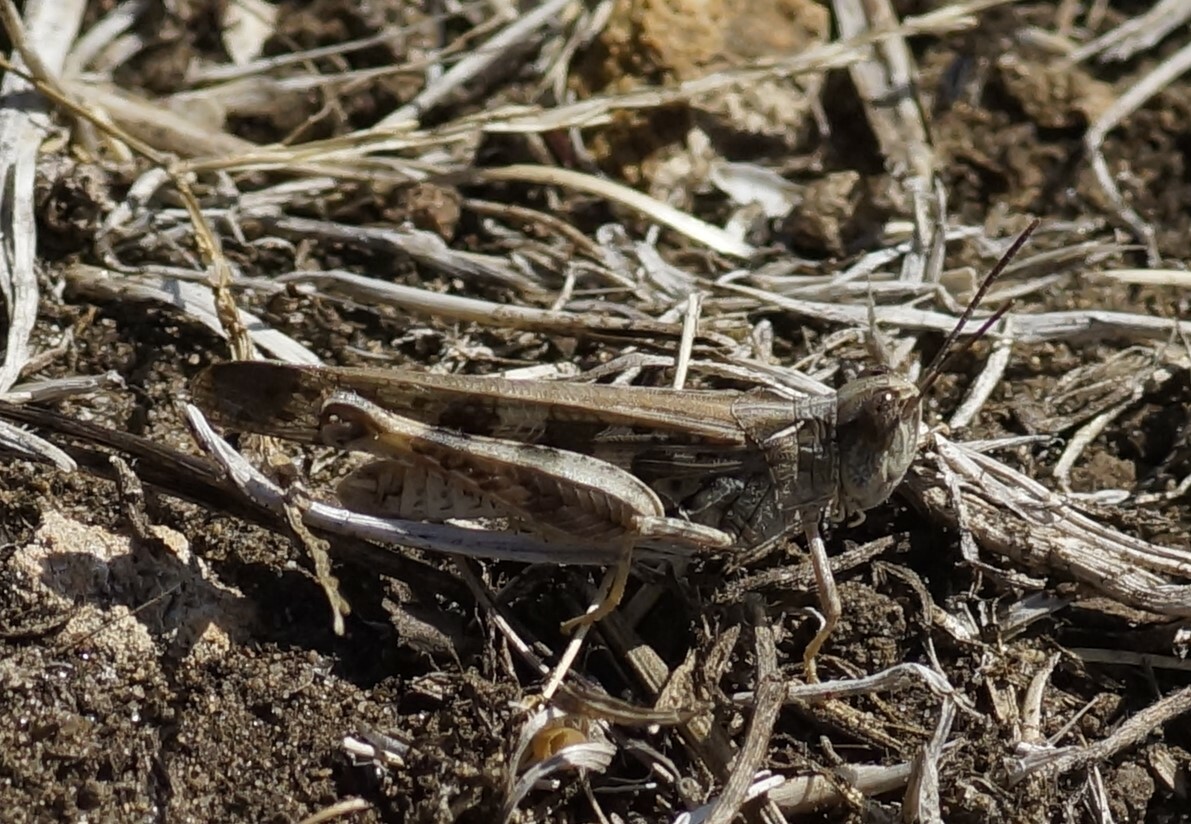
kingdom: Animalia
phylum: Arthropoda
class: Insecta
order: Orthoptera
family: Acrididae
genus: Chortoicetes
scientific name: Chortoicetes terminifera
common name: Australian plague locust
